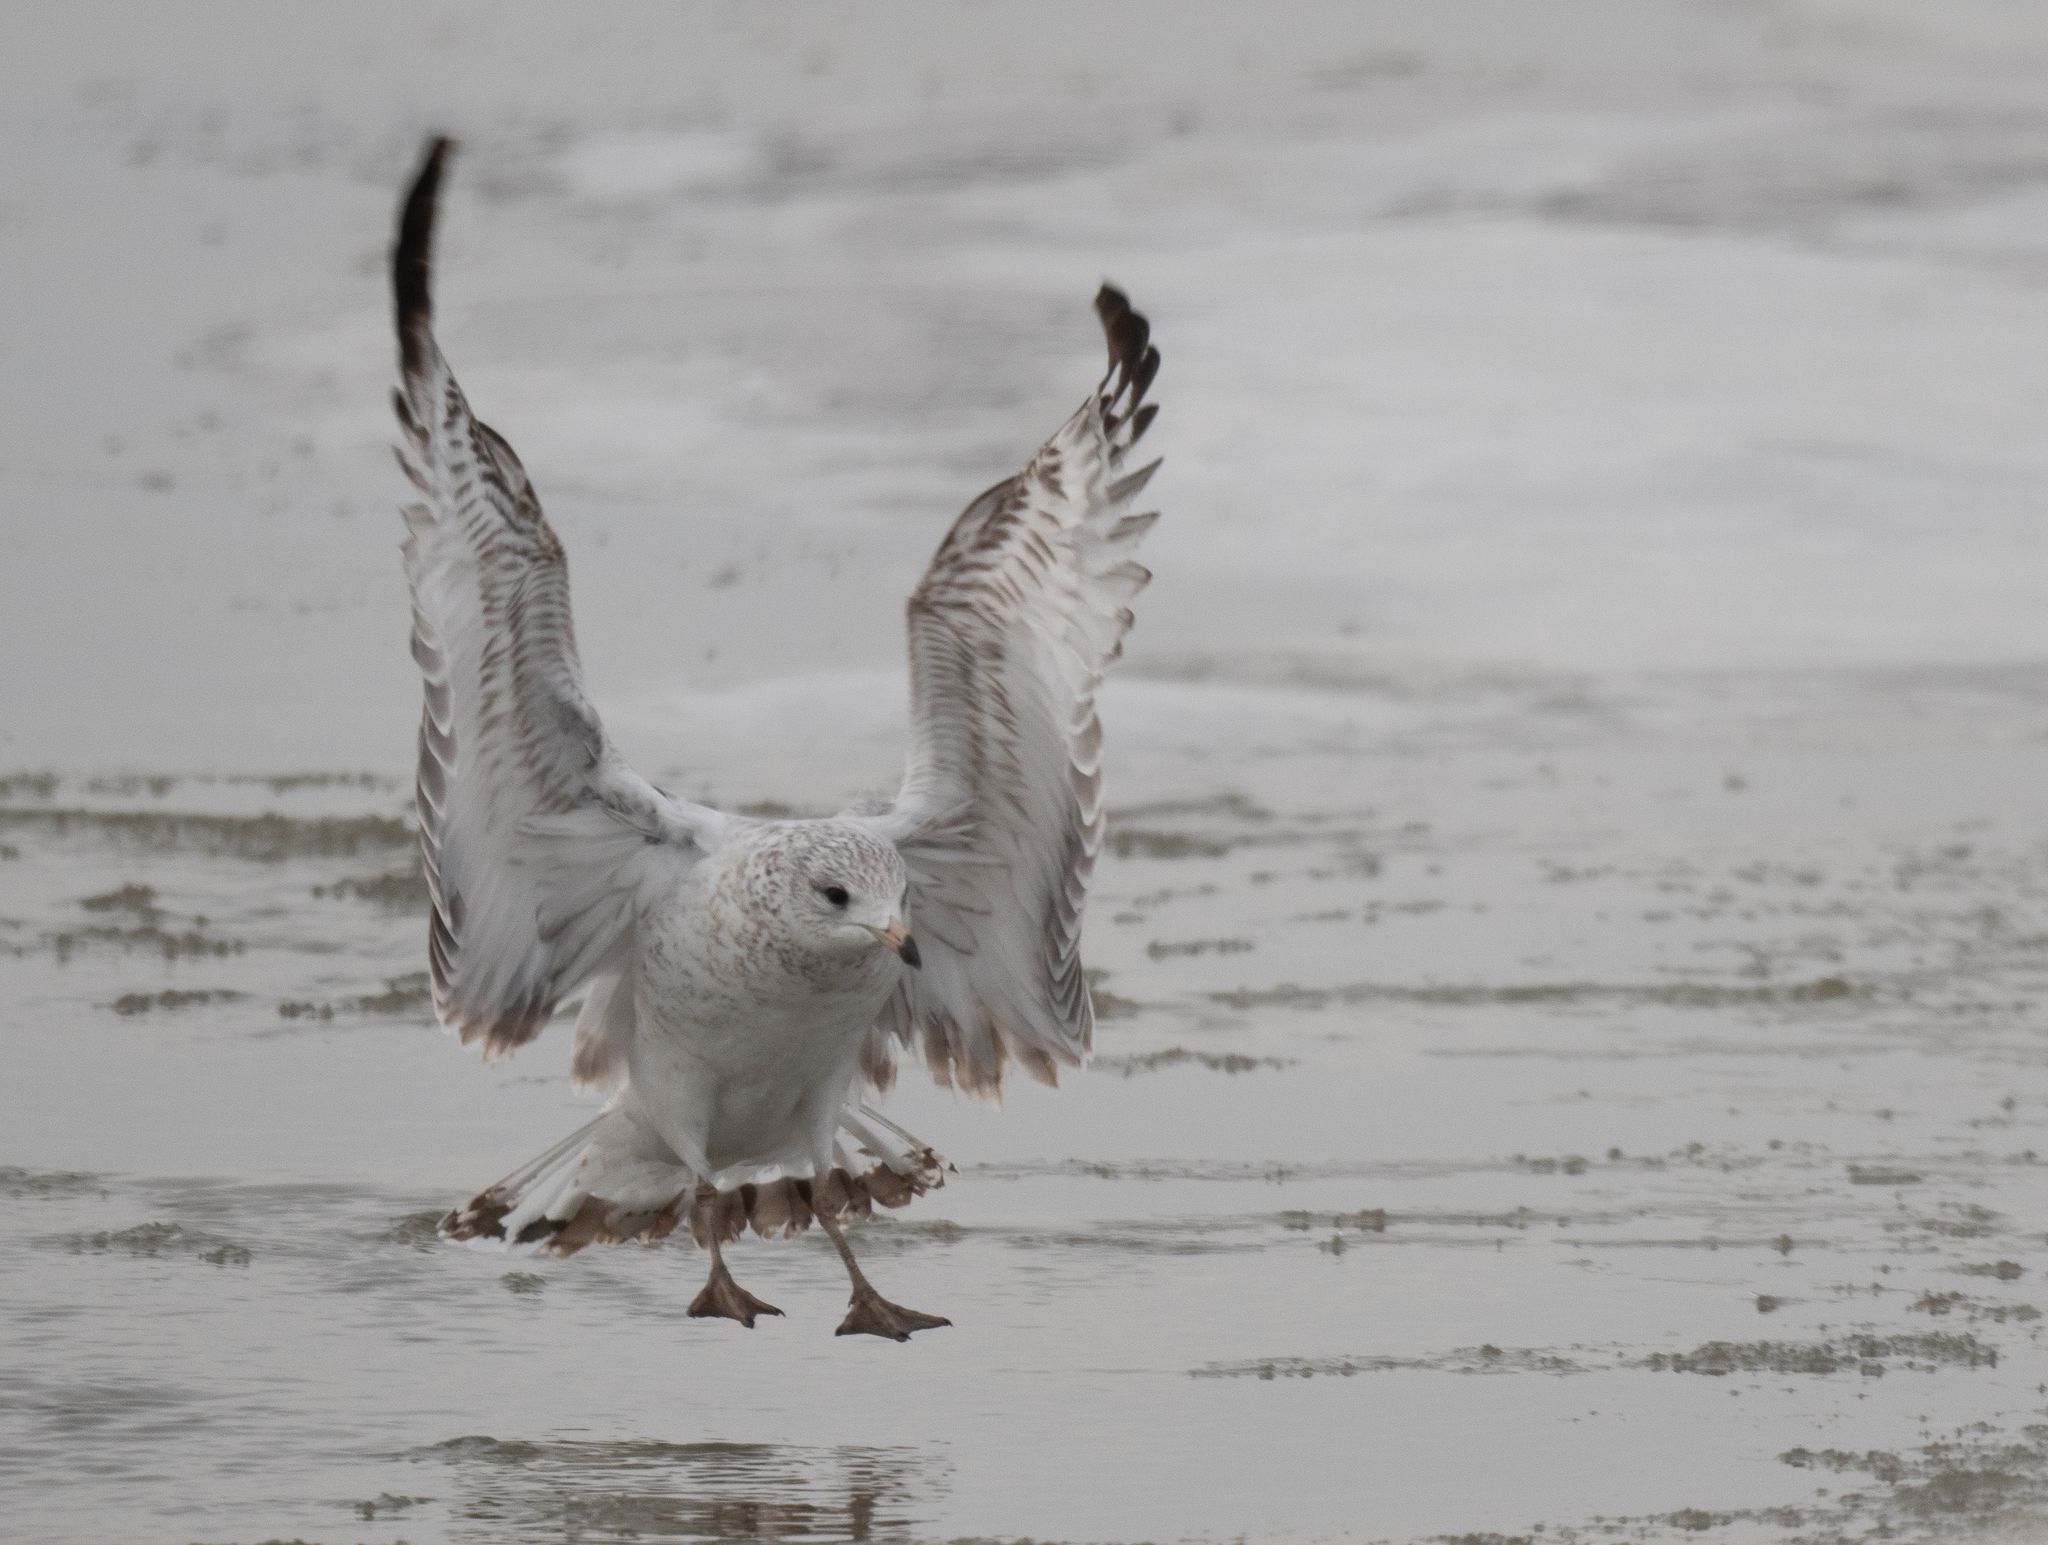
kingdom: Animalia
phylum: Chordata
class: Aves
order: Charadriiformes
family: Laridae
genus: Larus
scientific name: Larus delawarensis
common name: Ring-billed gull
